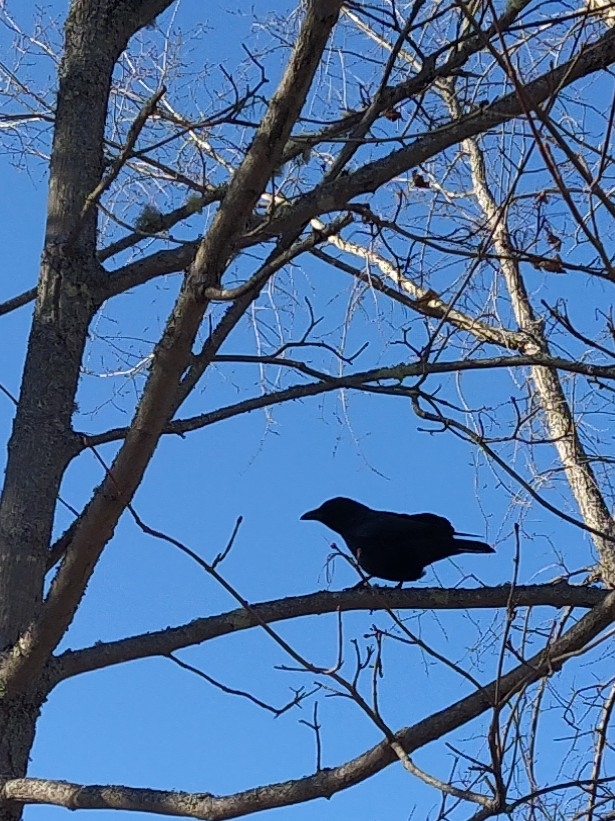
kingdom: Animalia
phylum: Chordata
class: Aves
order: Passeriformes
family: Corvidae
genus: Corvus
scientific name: Corvus brachyrhynchos
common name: American crow
